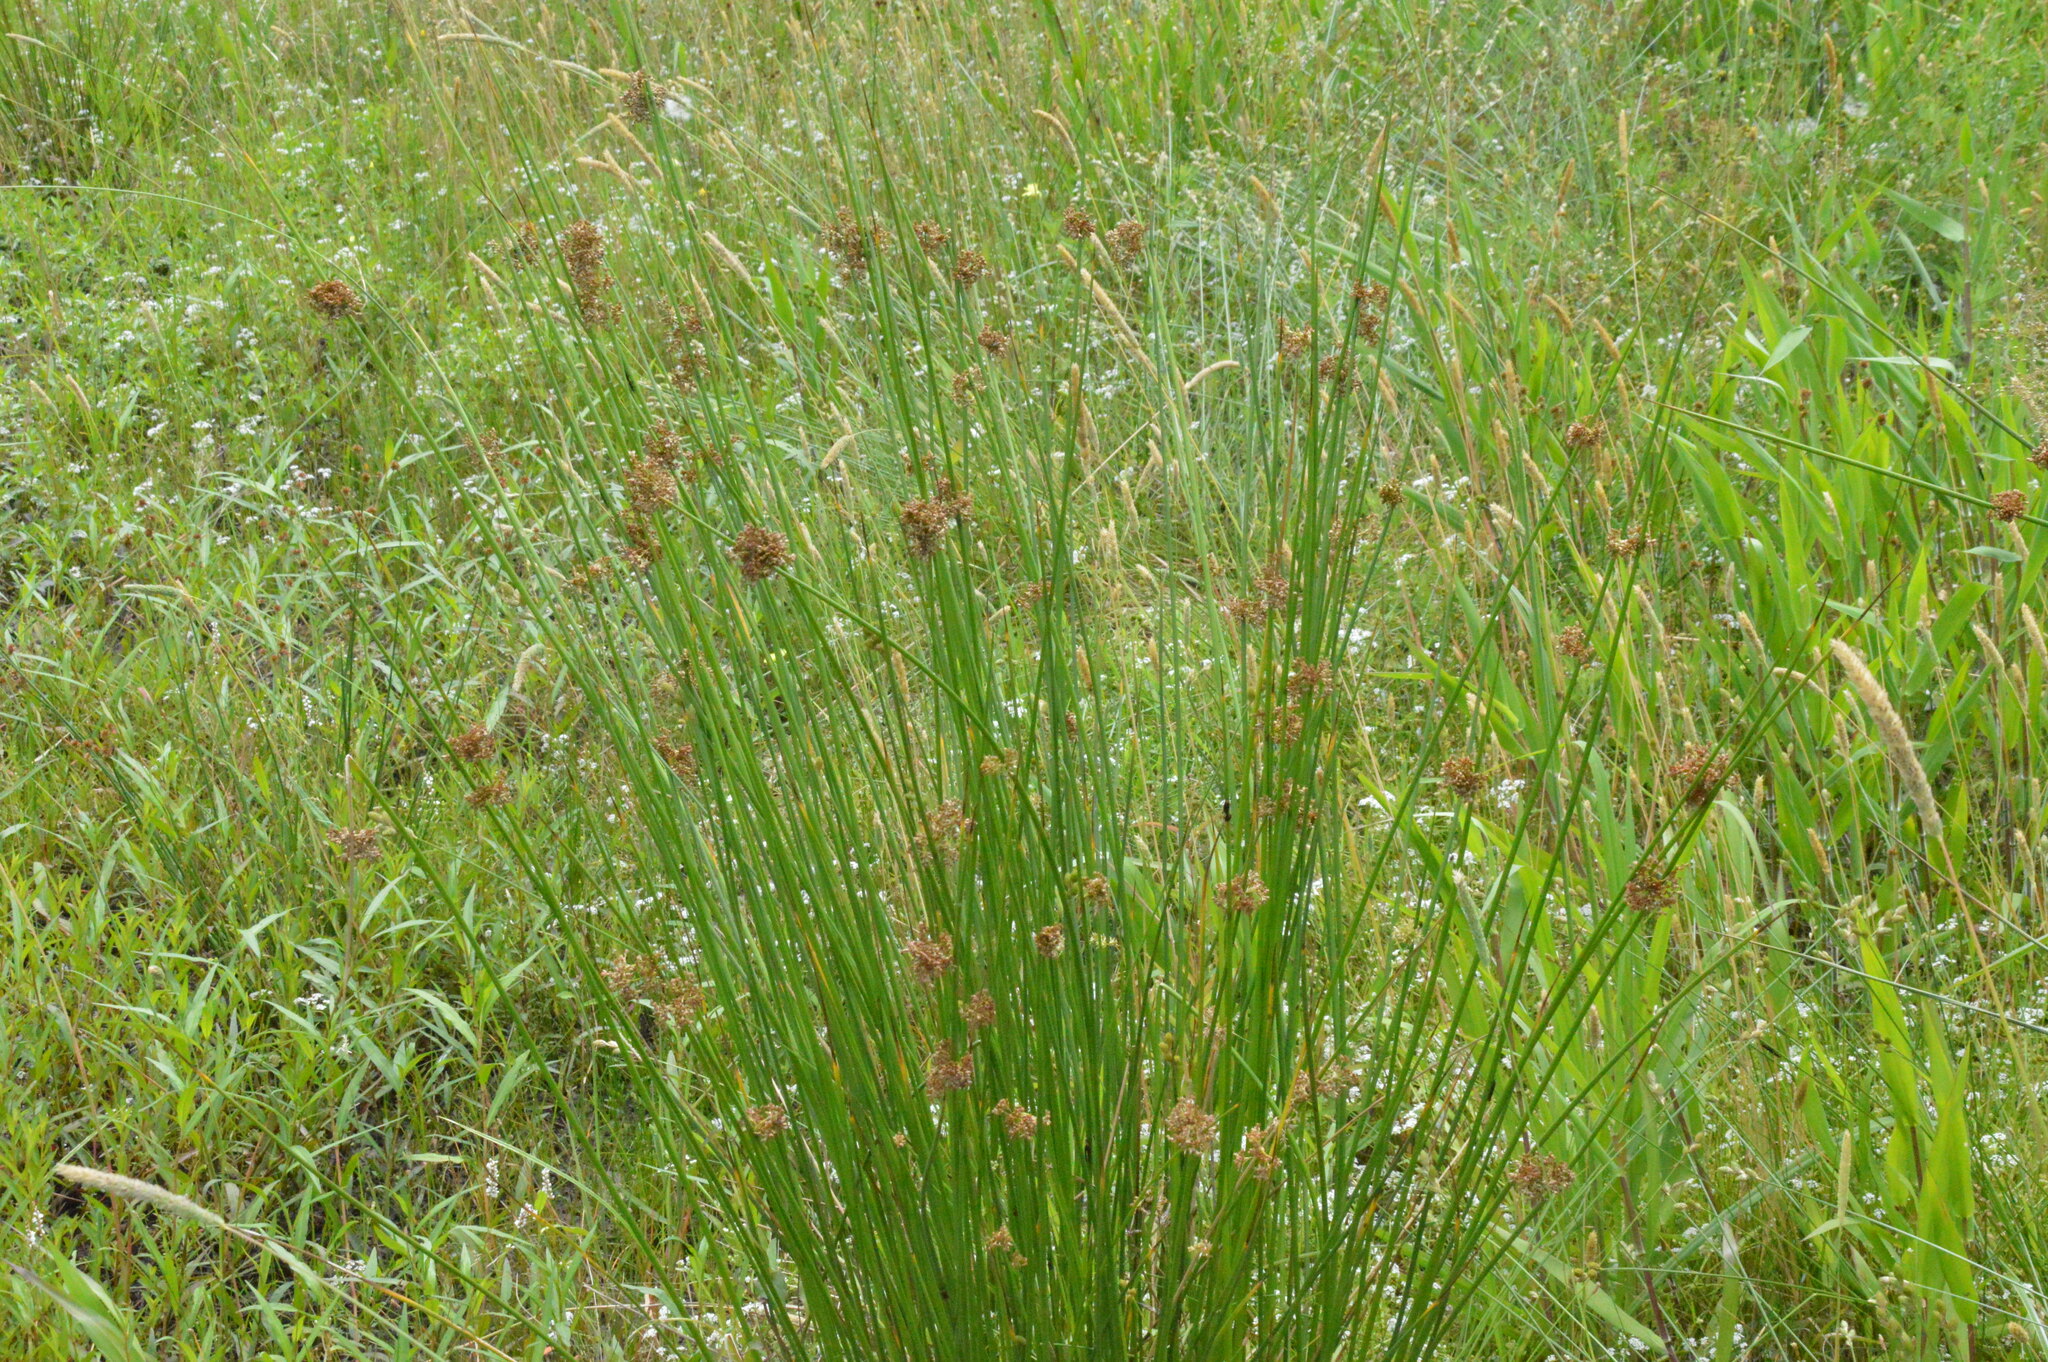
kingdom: Plantae
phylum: Tracheophyta
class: Liliopsida
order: Poales
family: Juncaceae
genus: Juncus
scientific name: Juncus effusus
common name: Soft rush
